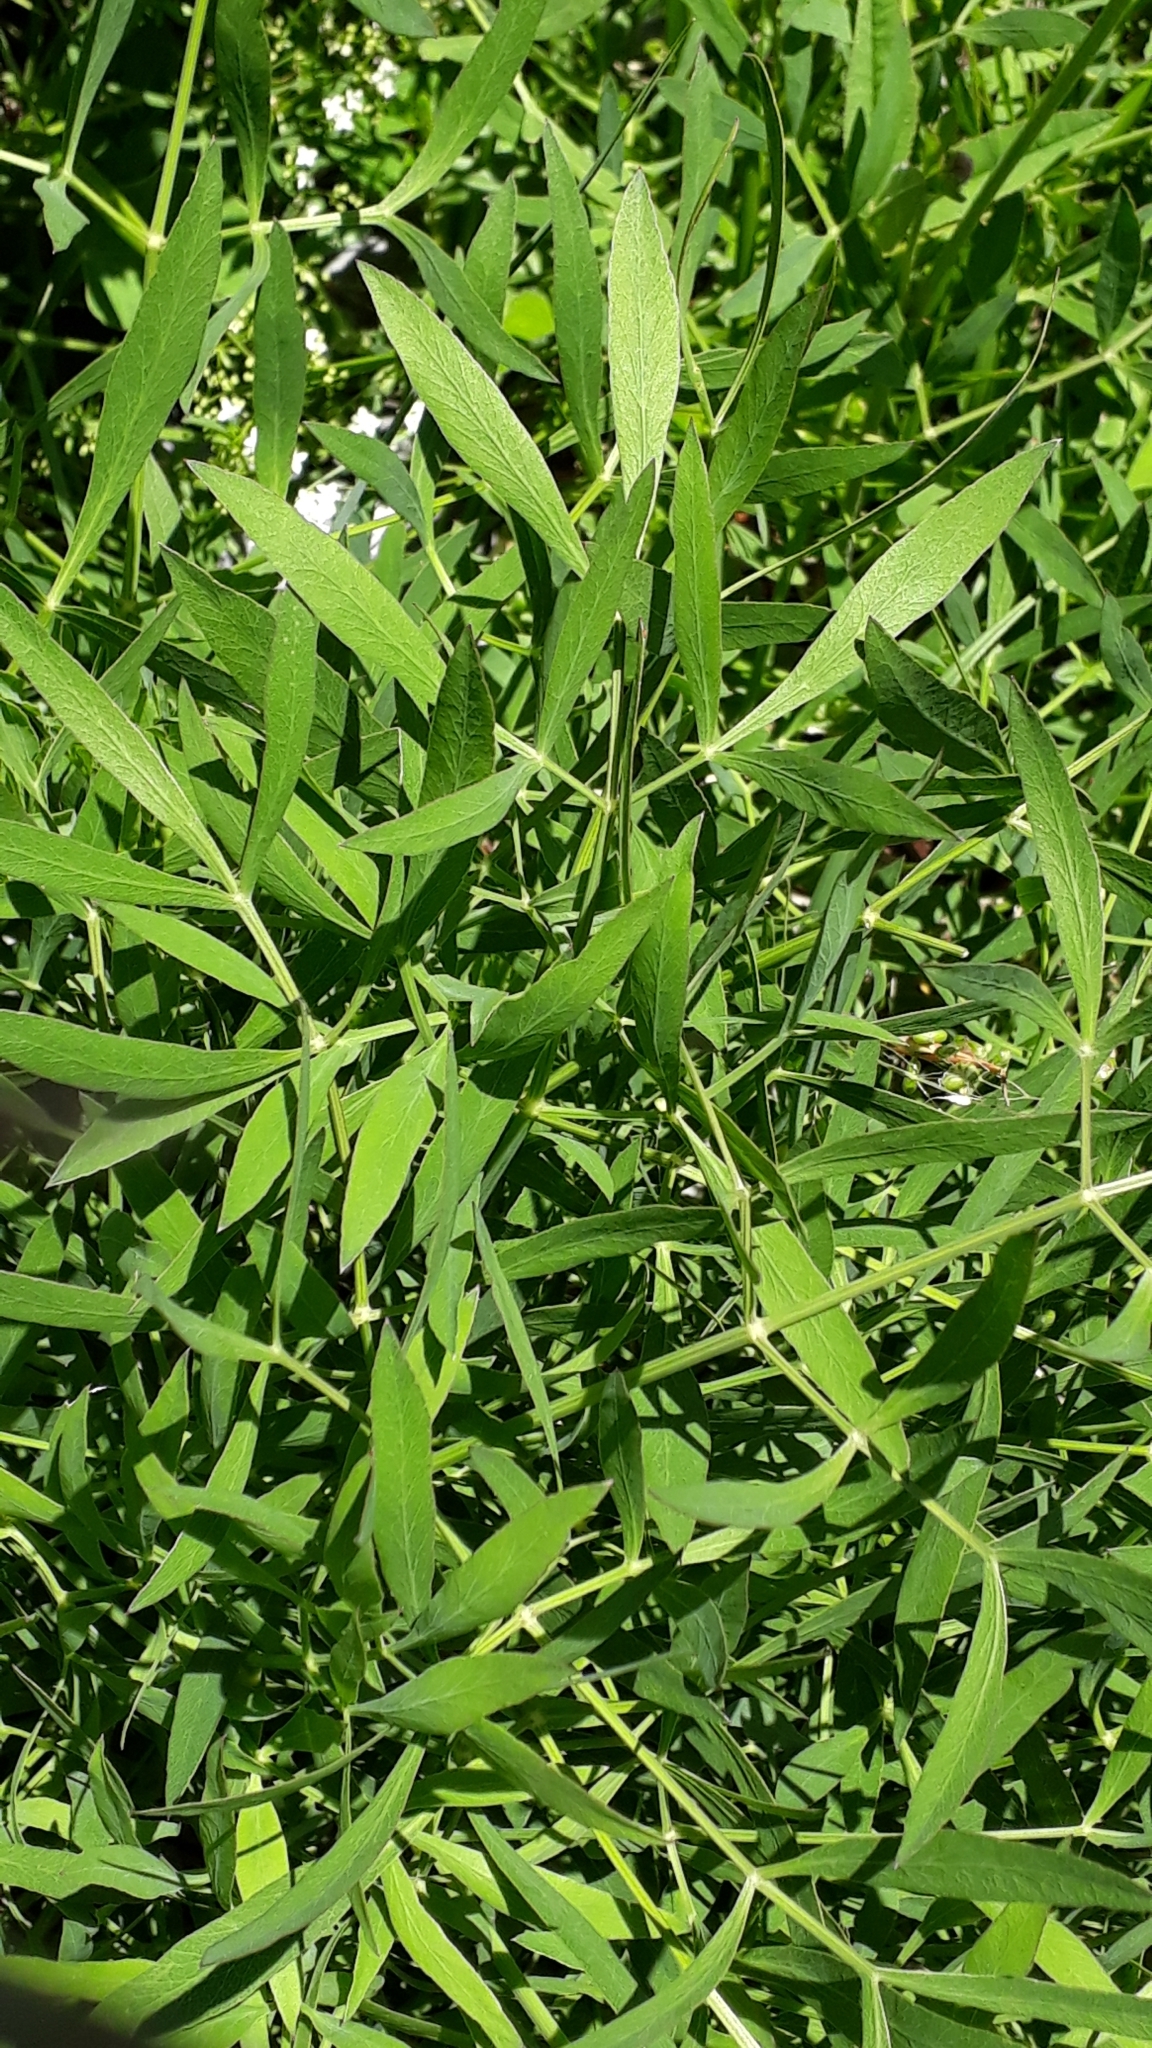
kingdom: Plantae
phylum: Tracheophyta
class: Magnoliopsida
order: Apiales
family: Apiaceae
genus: Siler
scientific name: Siler montanum
